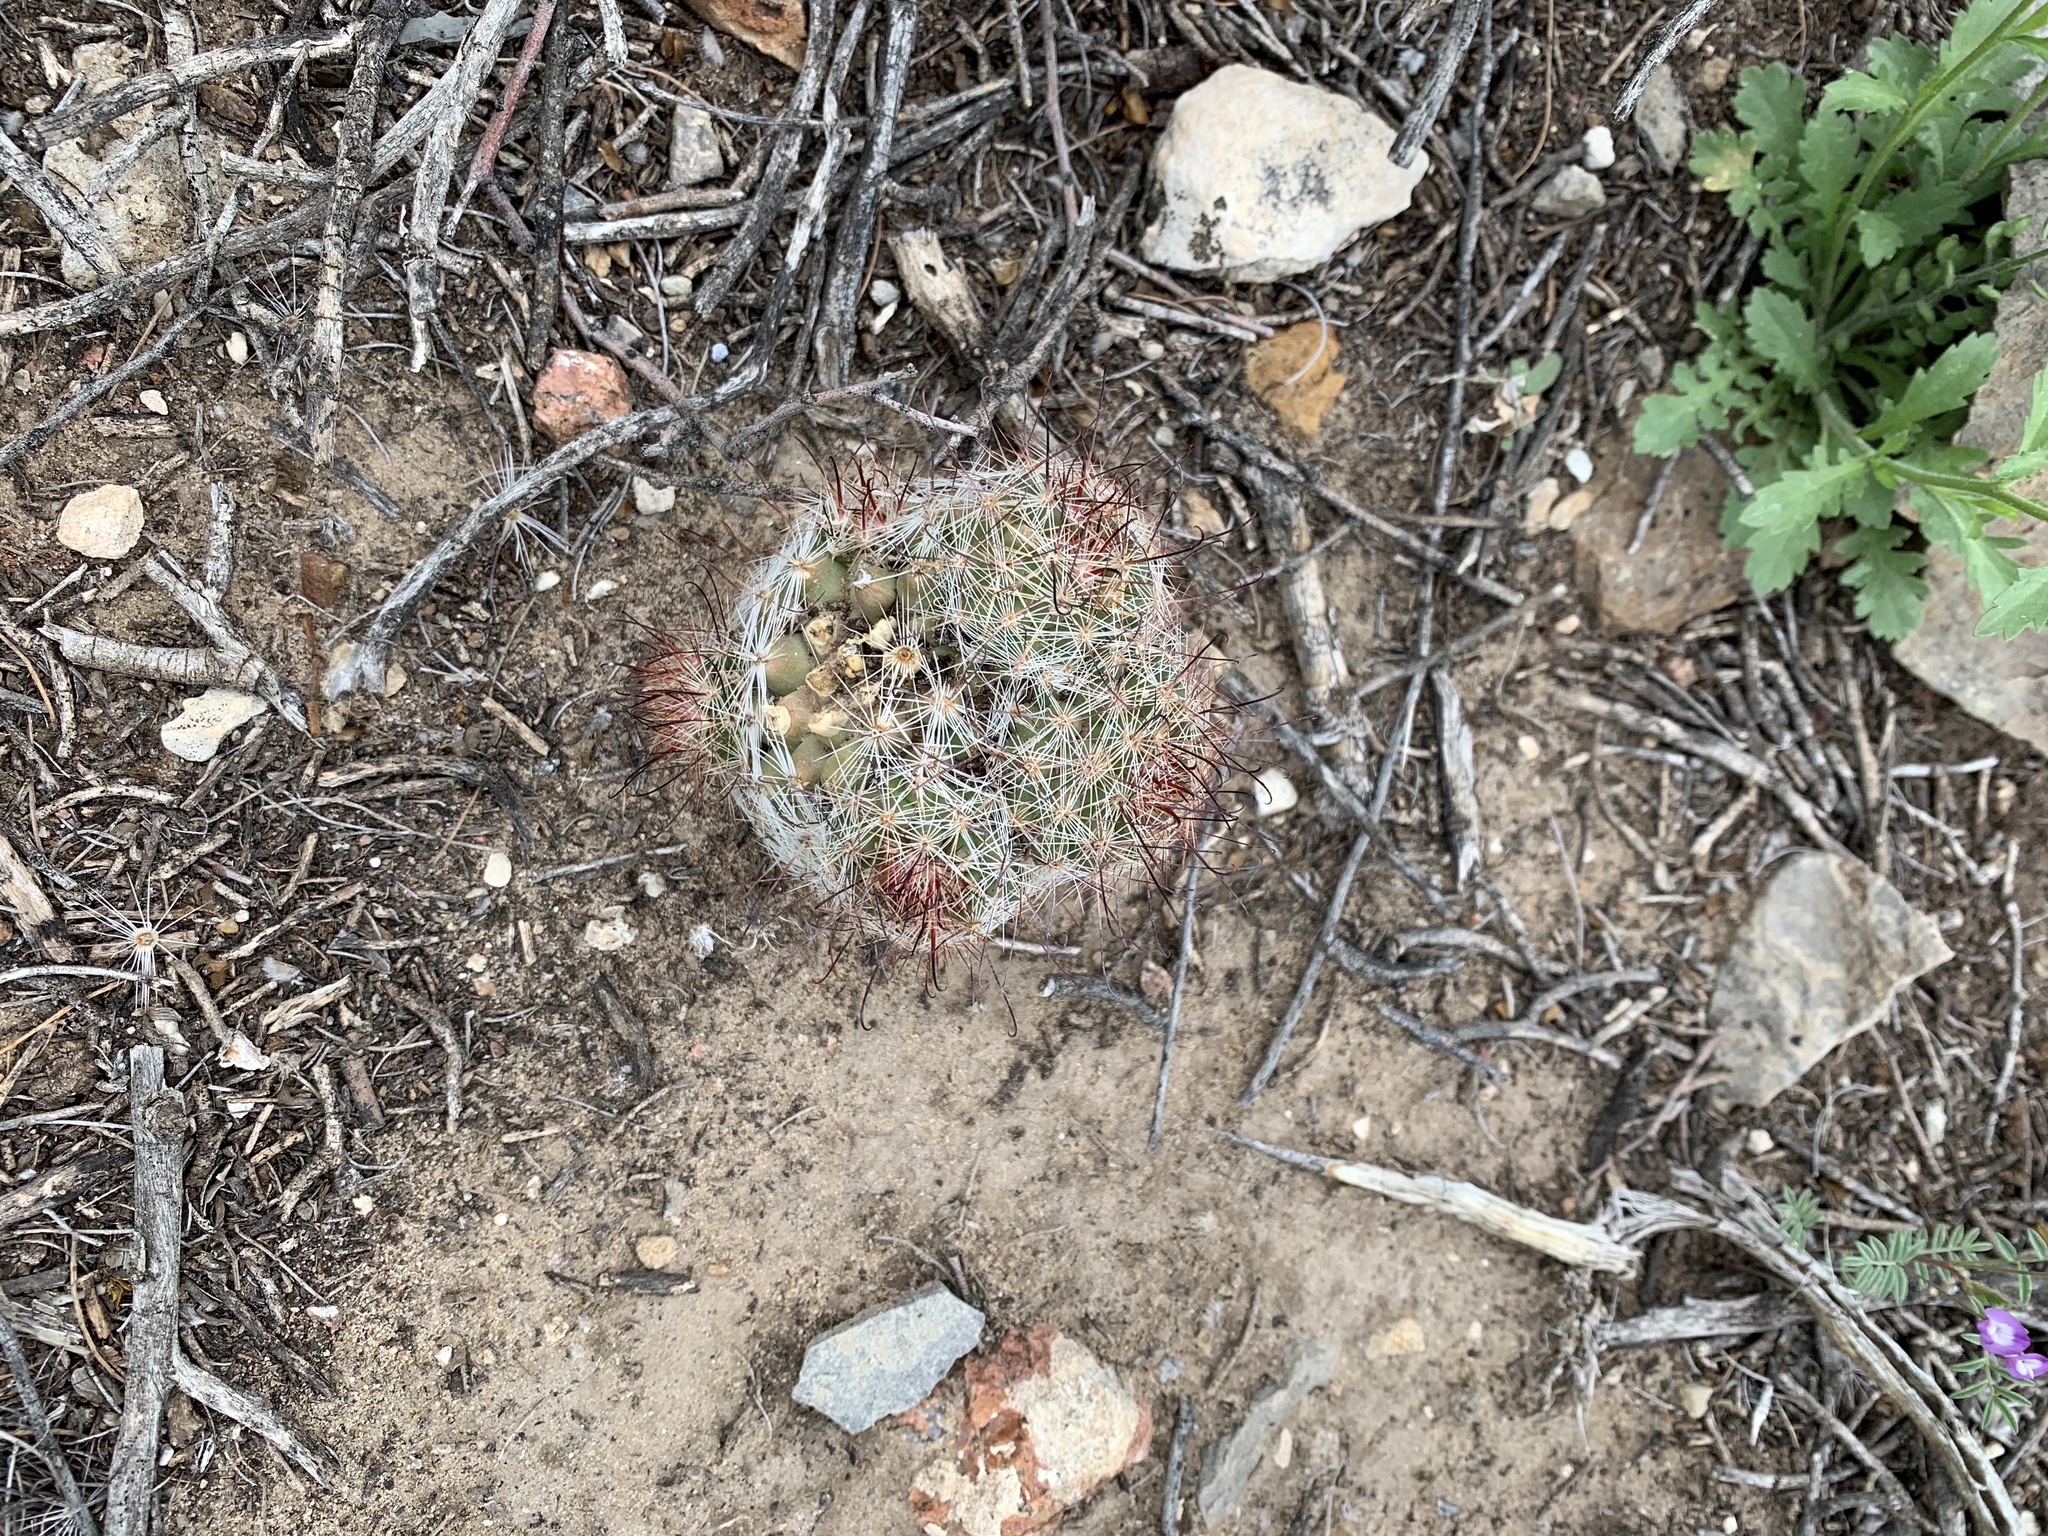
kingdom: Plantae
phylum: Tracheophyta
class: Magnoliopsida
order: Caryophyllales
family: Cactaceae
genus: Cochemiea
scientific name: Cochemiea grahamii
